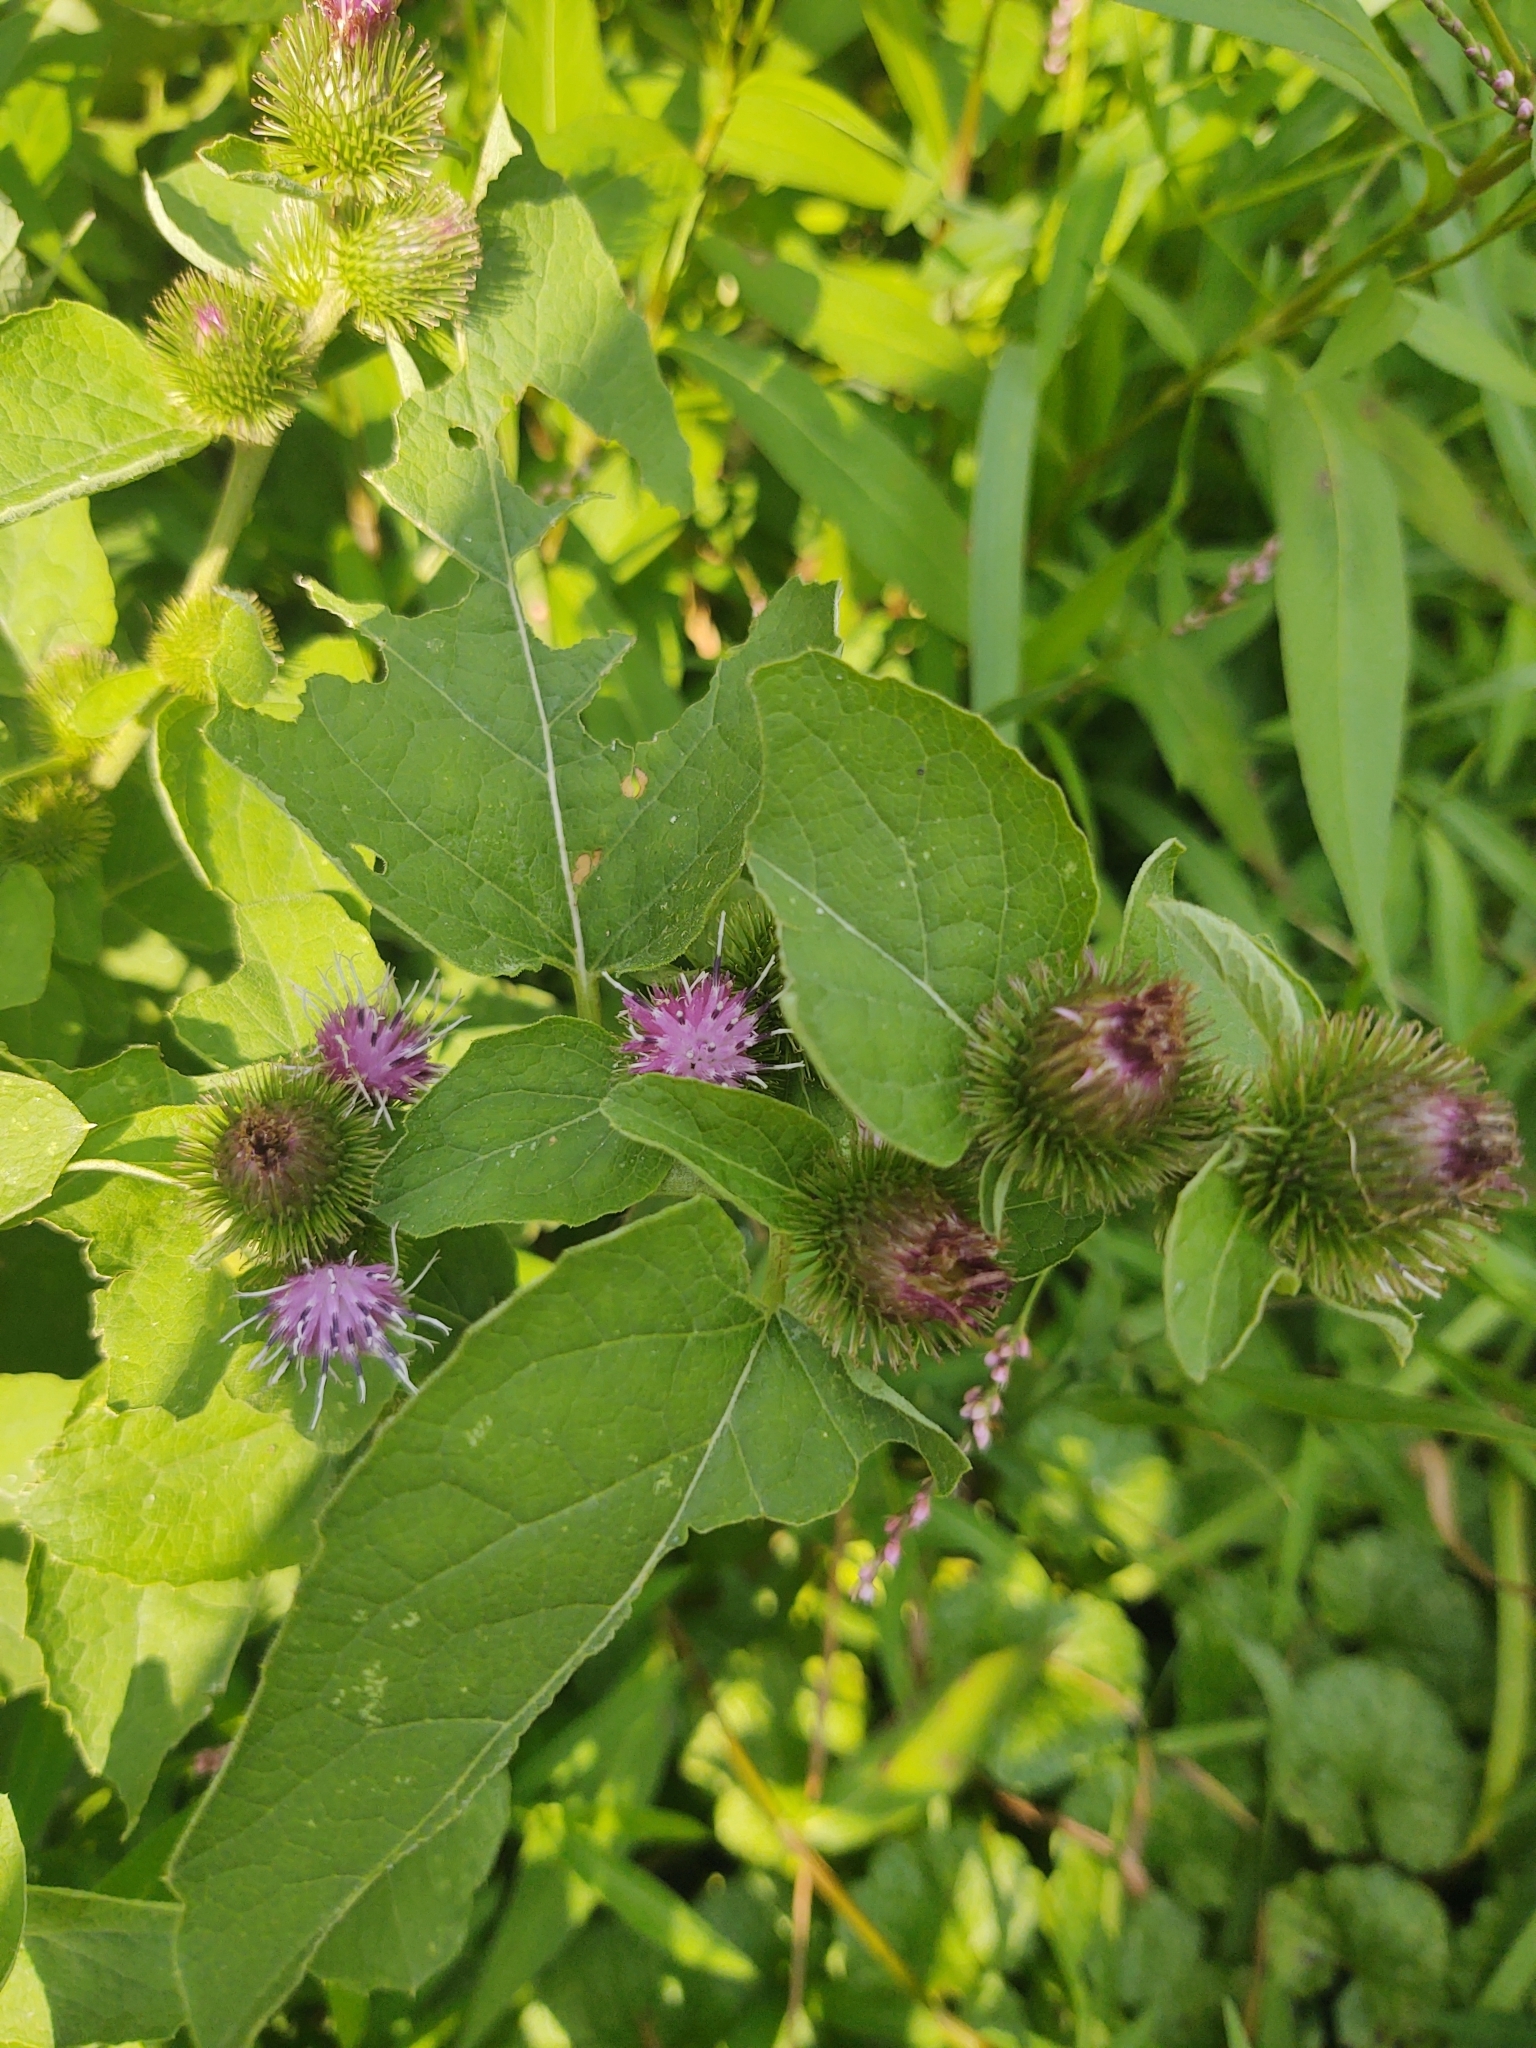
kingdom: Plantae
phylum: Tracheophyta
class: Magnoliopsida
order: Asterales
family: Asteraceae
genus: Arctium
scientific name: Arctium minus
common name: Lesser burdock
